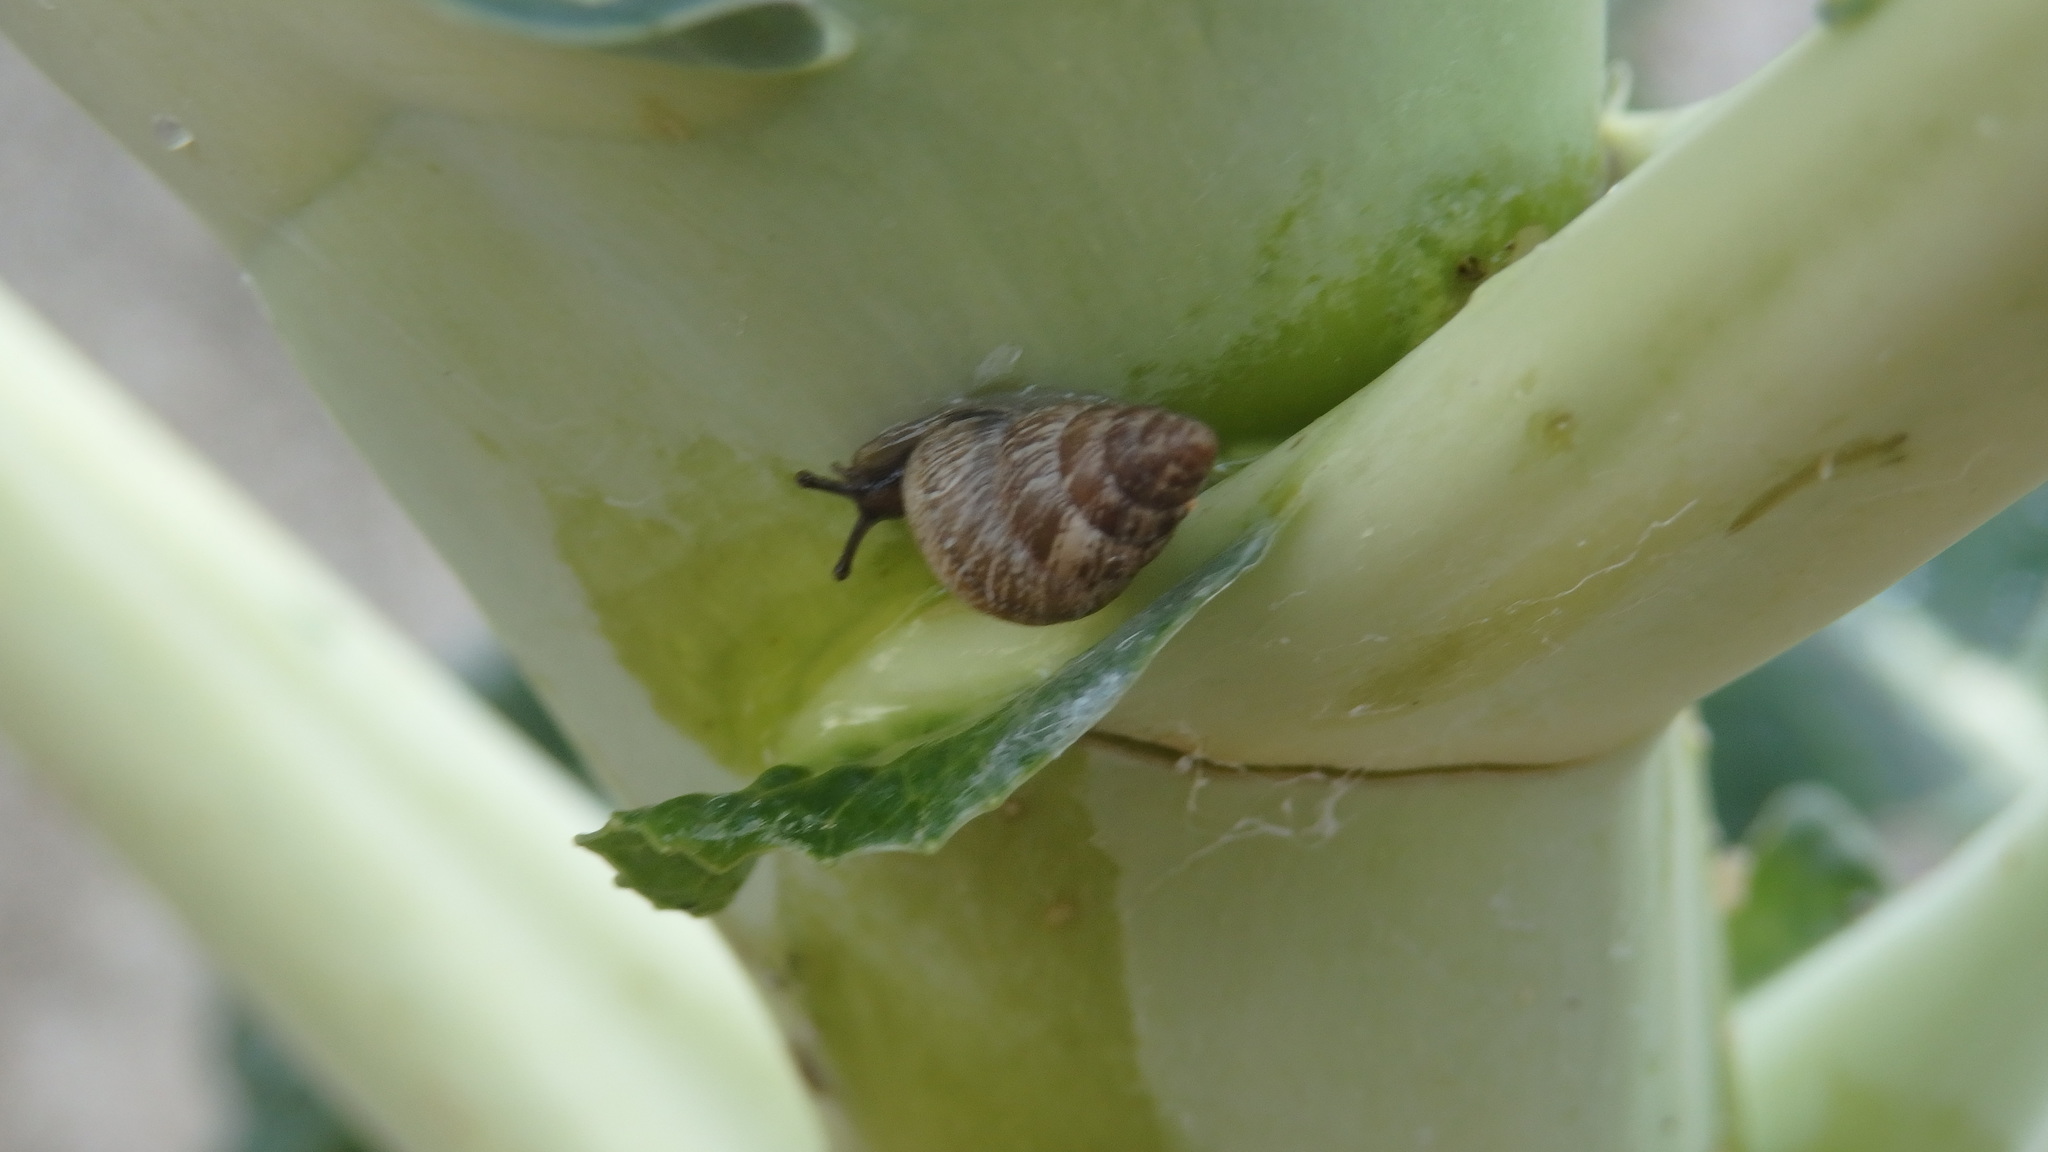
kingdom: Animalia
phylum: Mollusca
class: Gastropoda
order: Stylommatophora
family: Geomitridae
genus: Cochlicella
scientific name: Cochlicella barbara
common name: Potbellied helicellid
